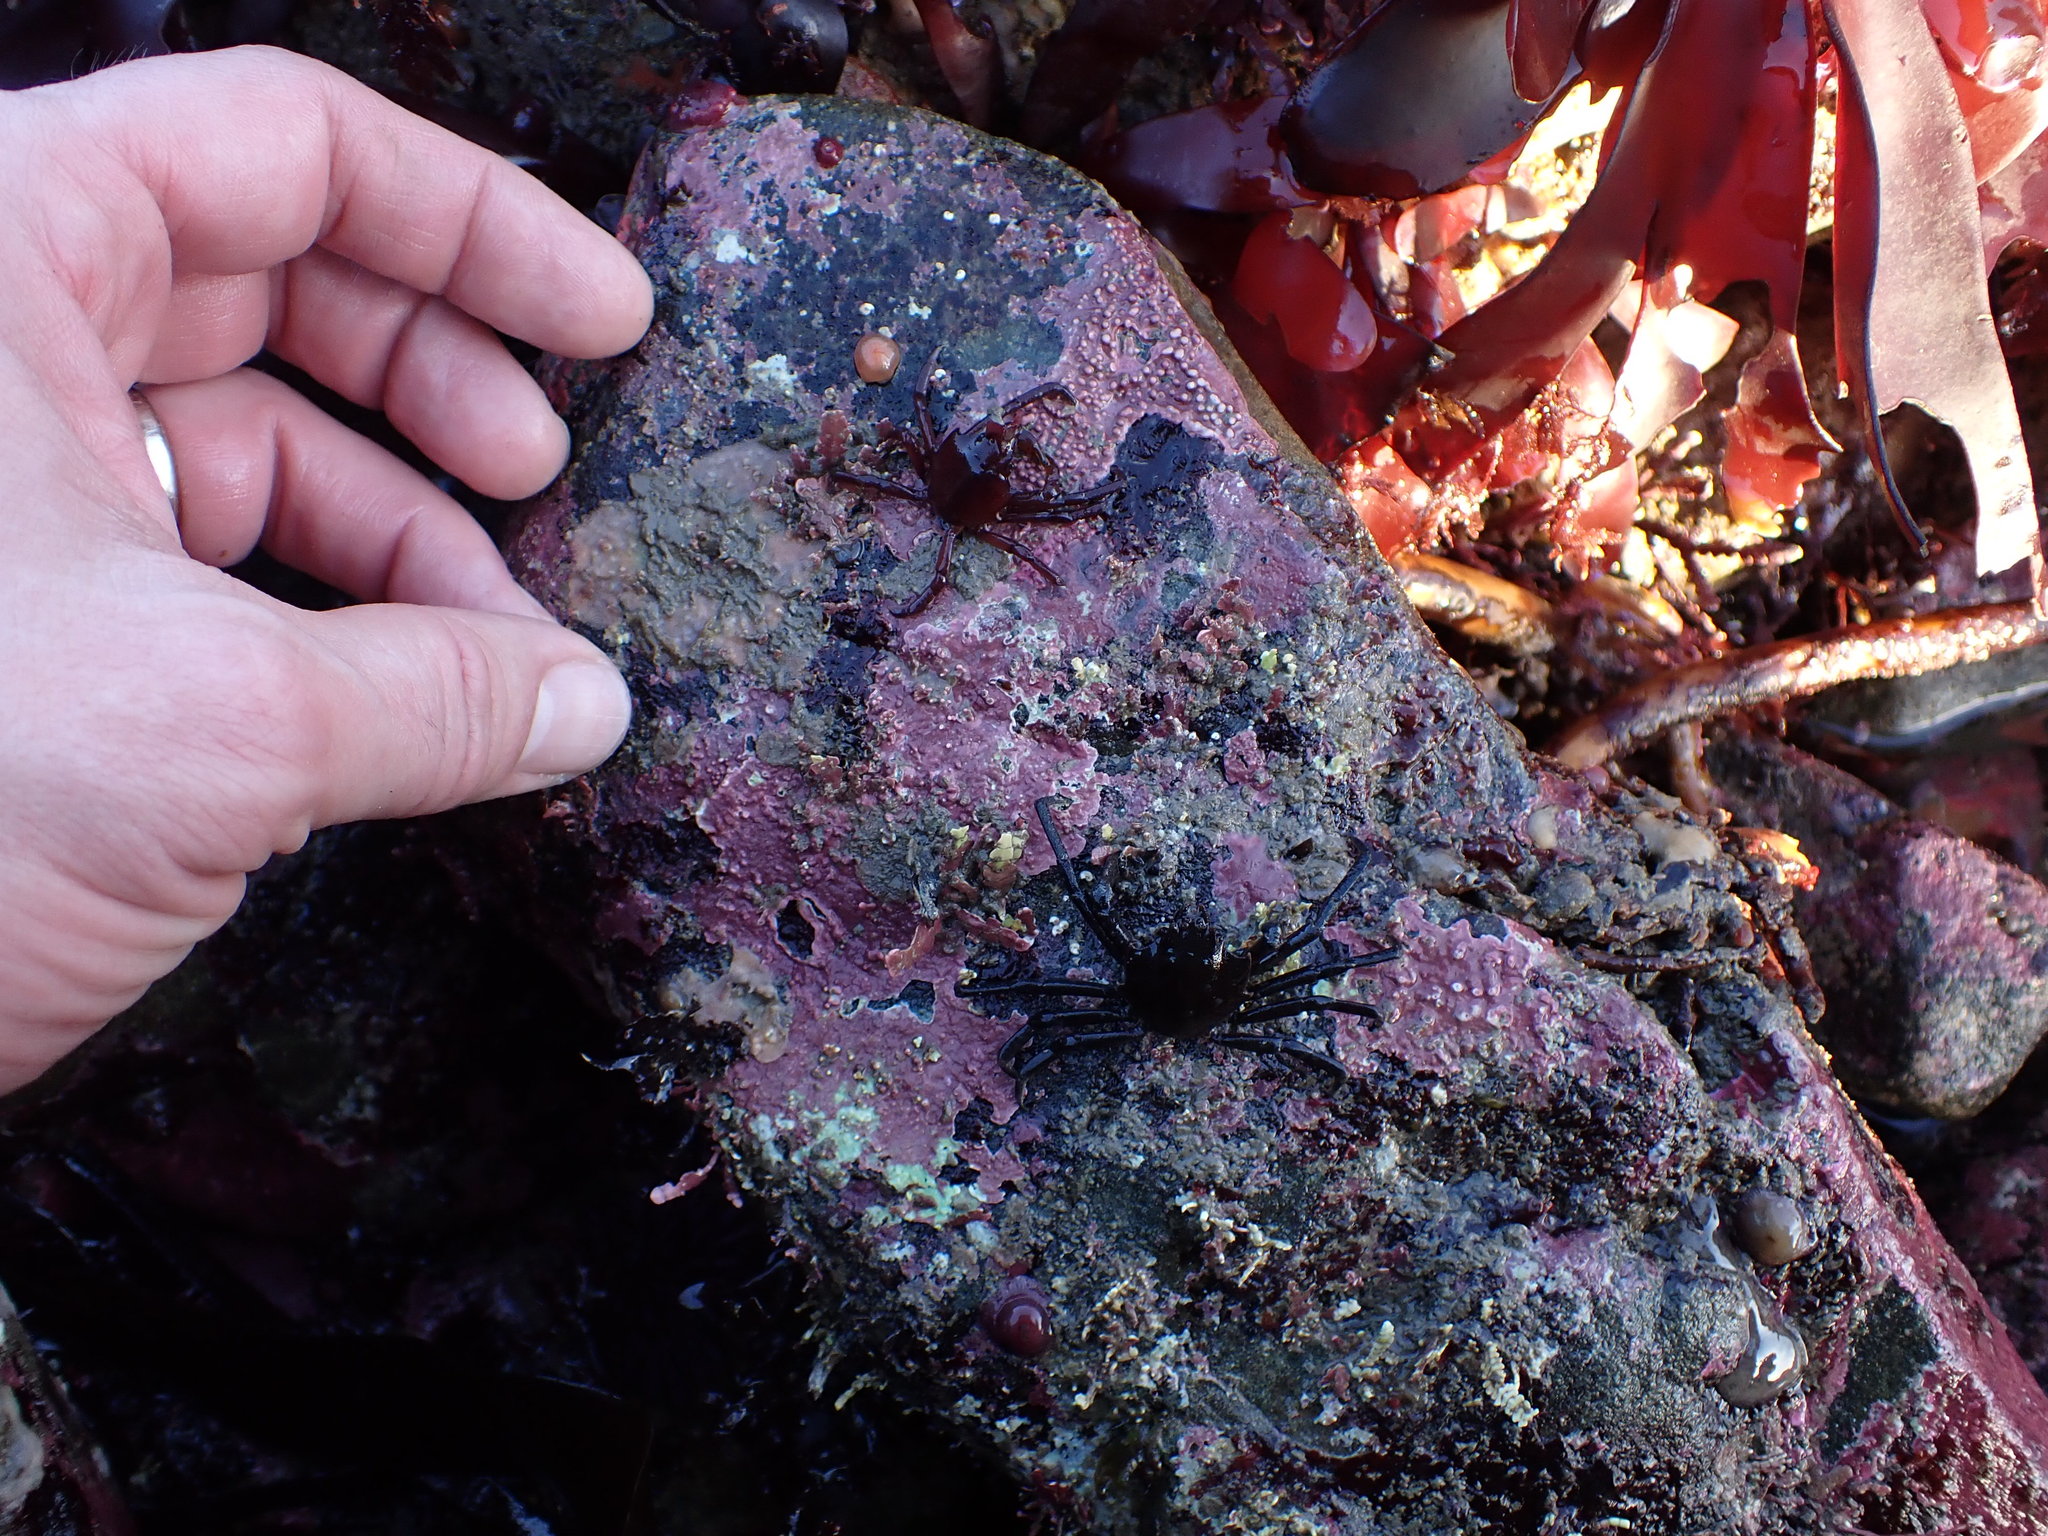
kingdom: Animalia
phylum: Arthropoda
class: Malacostraca
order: Decapoda
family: Epialtidae
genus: Pugettia
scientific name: Pugettia producta
